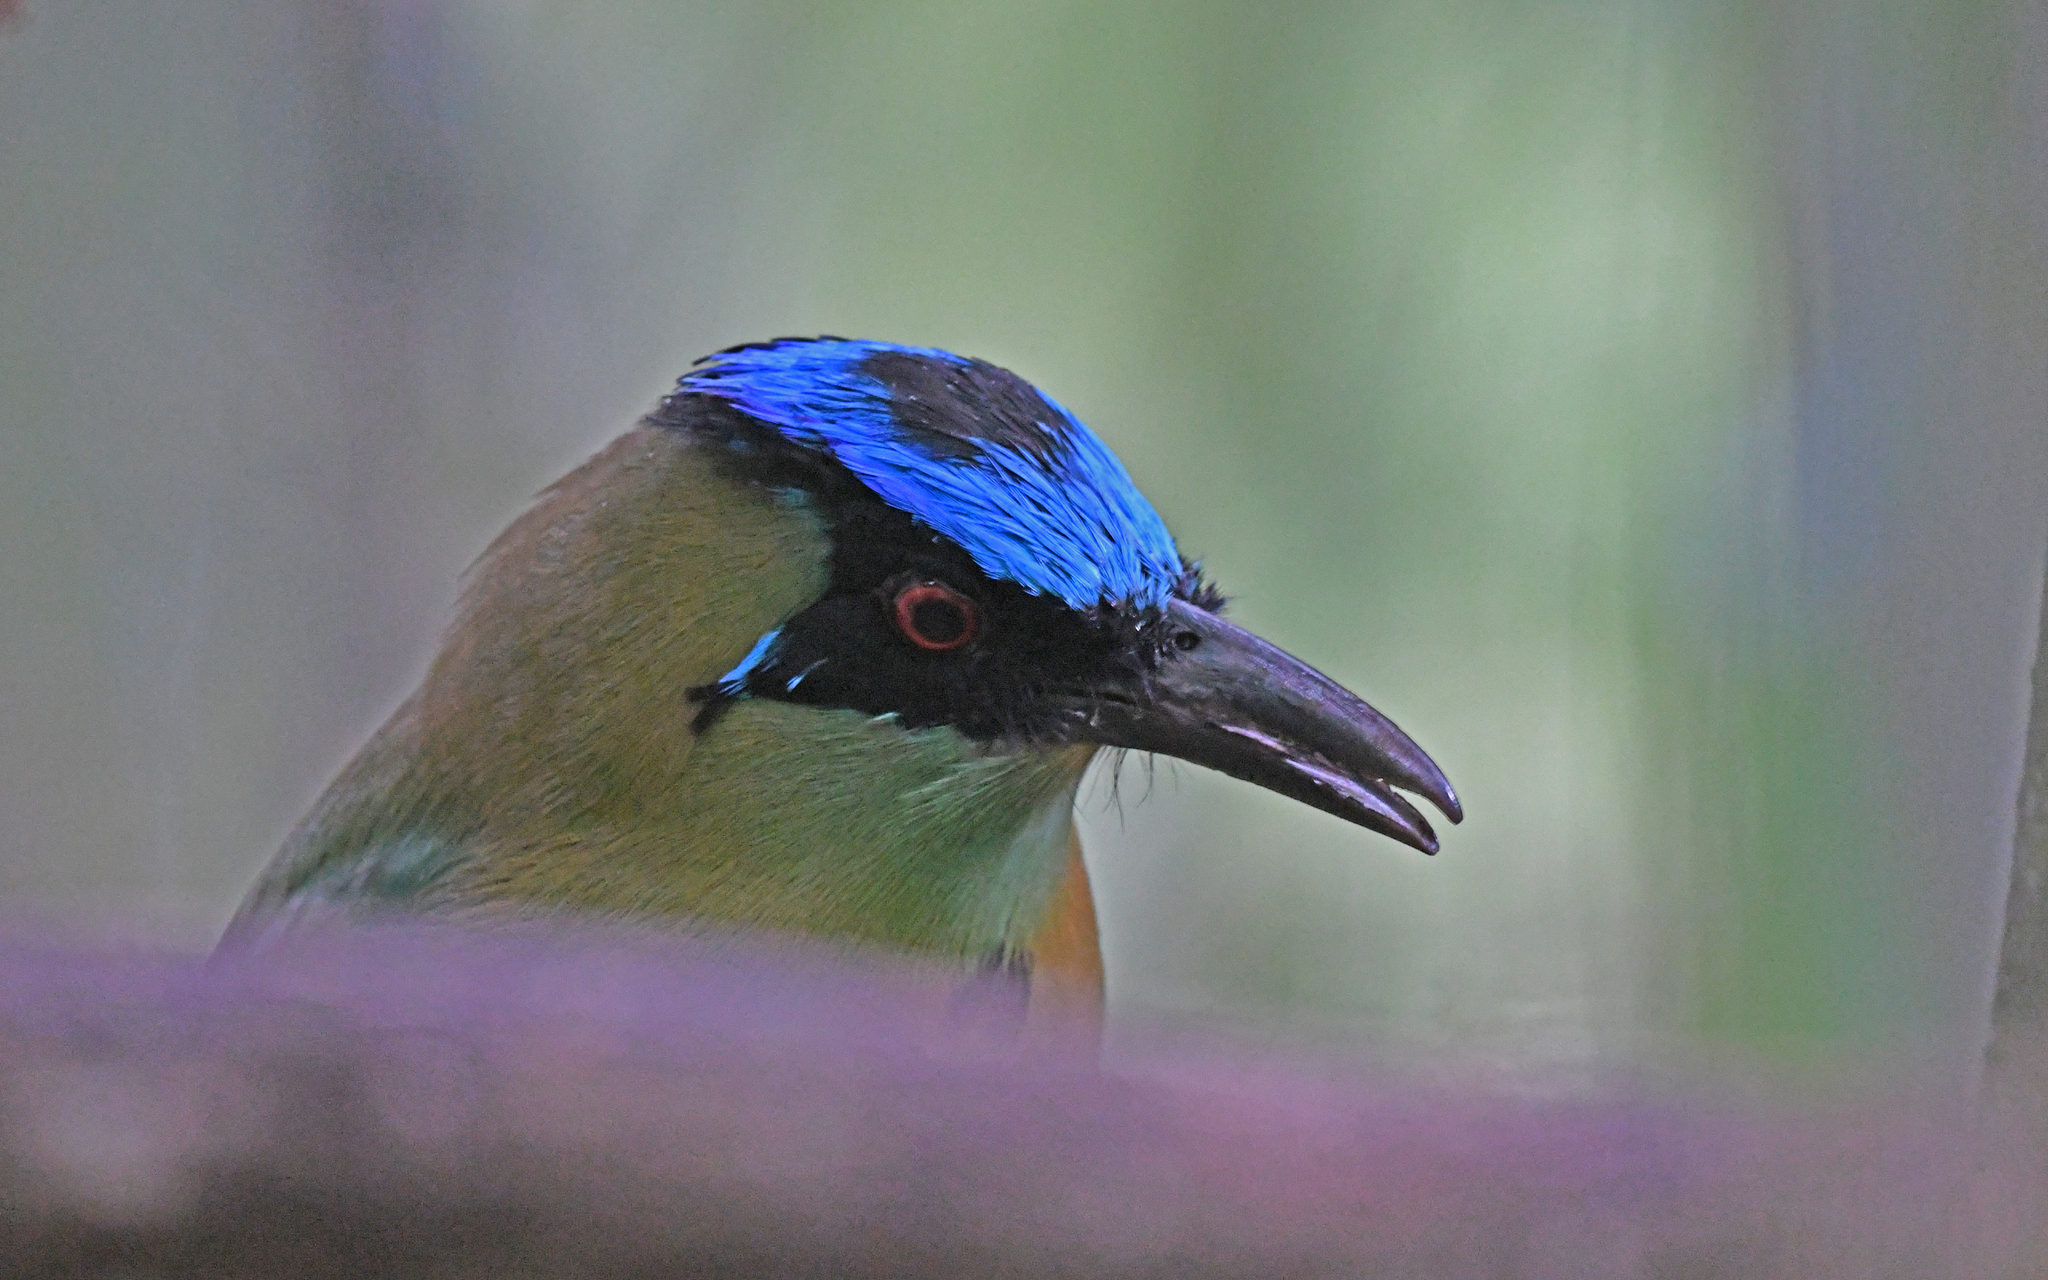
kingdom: Animalia
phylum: Chordata
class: Aves
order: Coraciiformes
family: Momotidae
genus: Momotus
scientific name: Momotus aequatorialis
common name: Andean motmot
